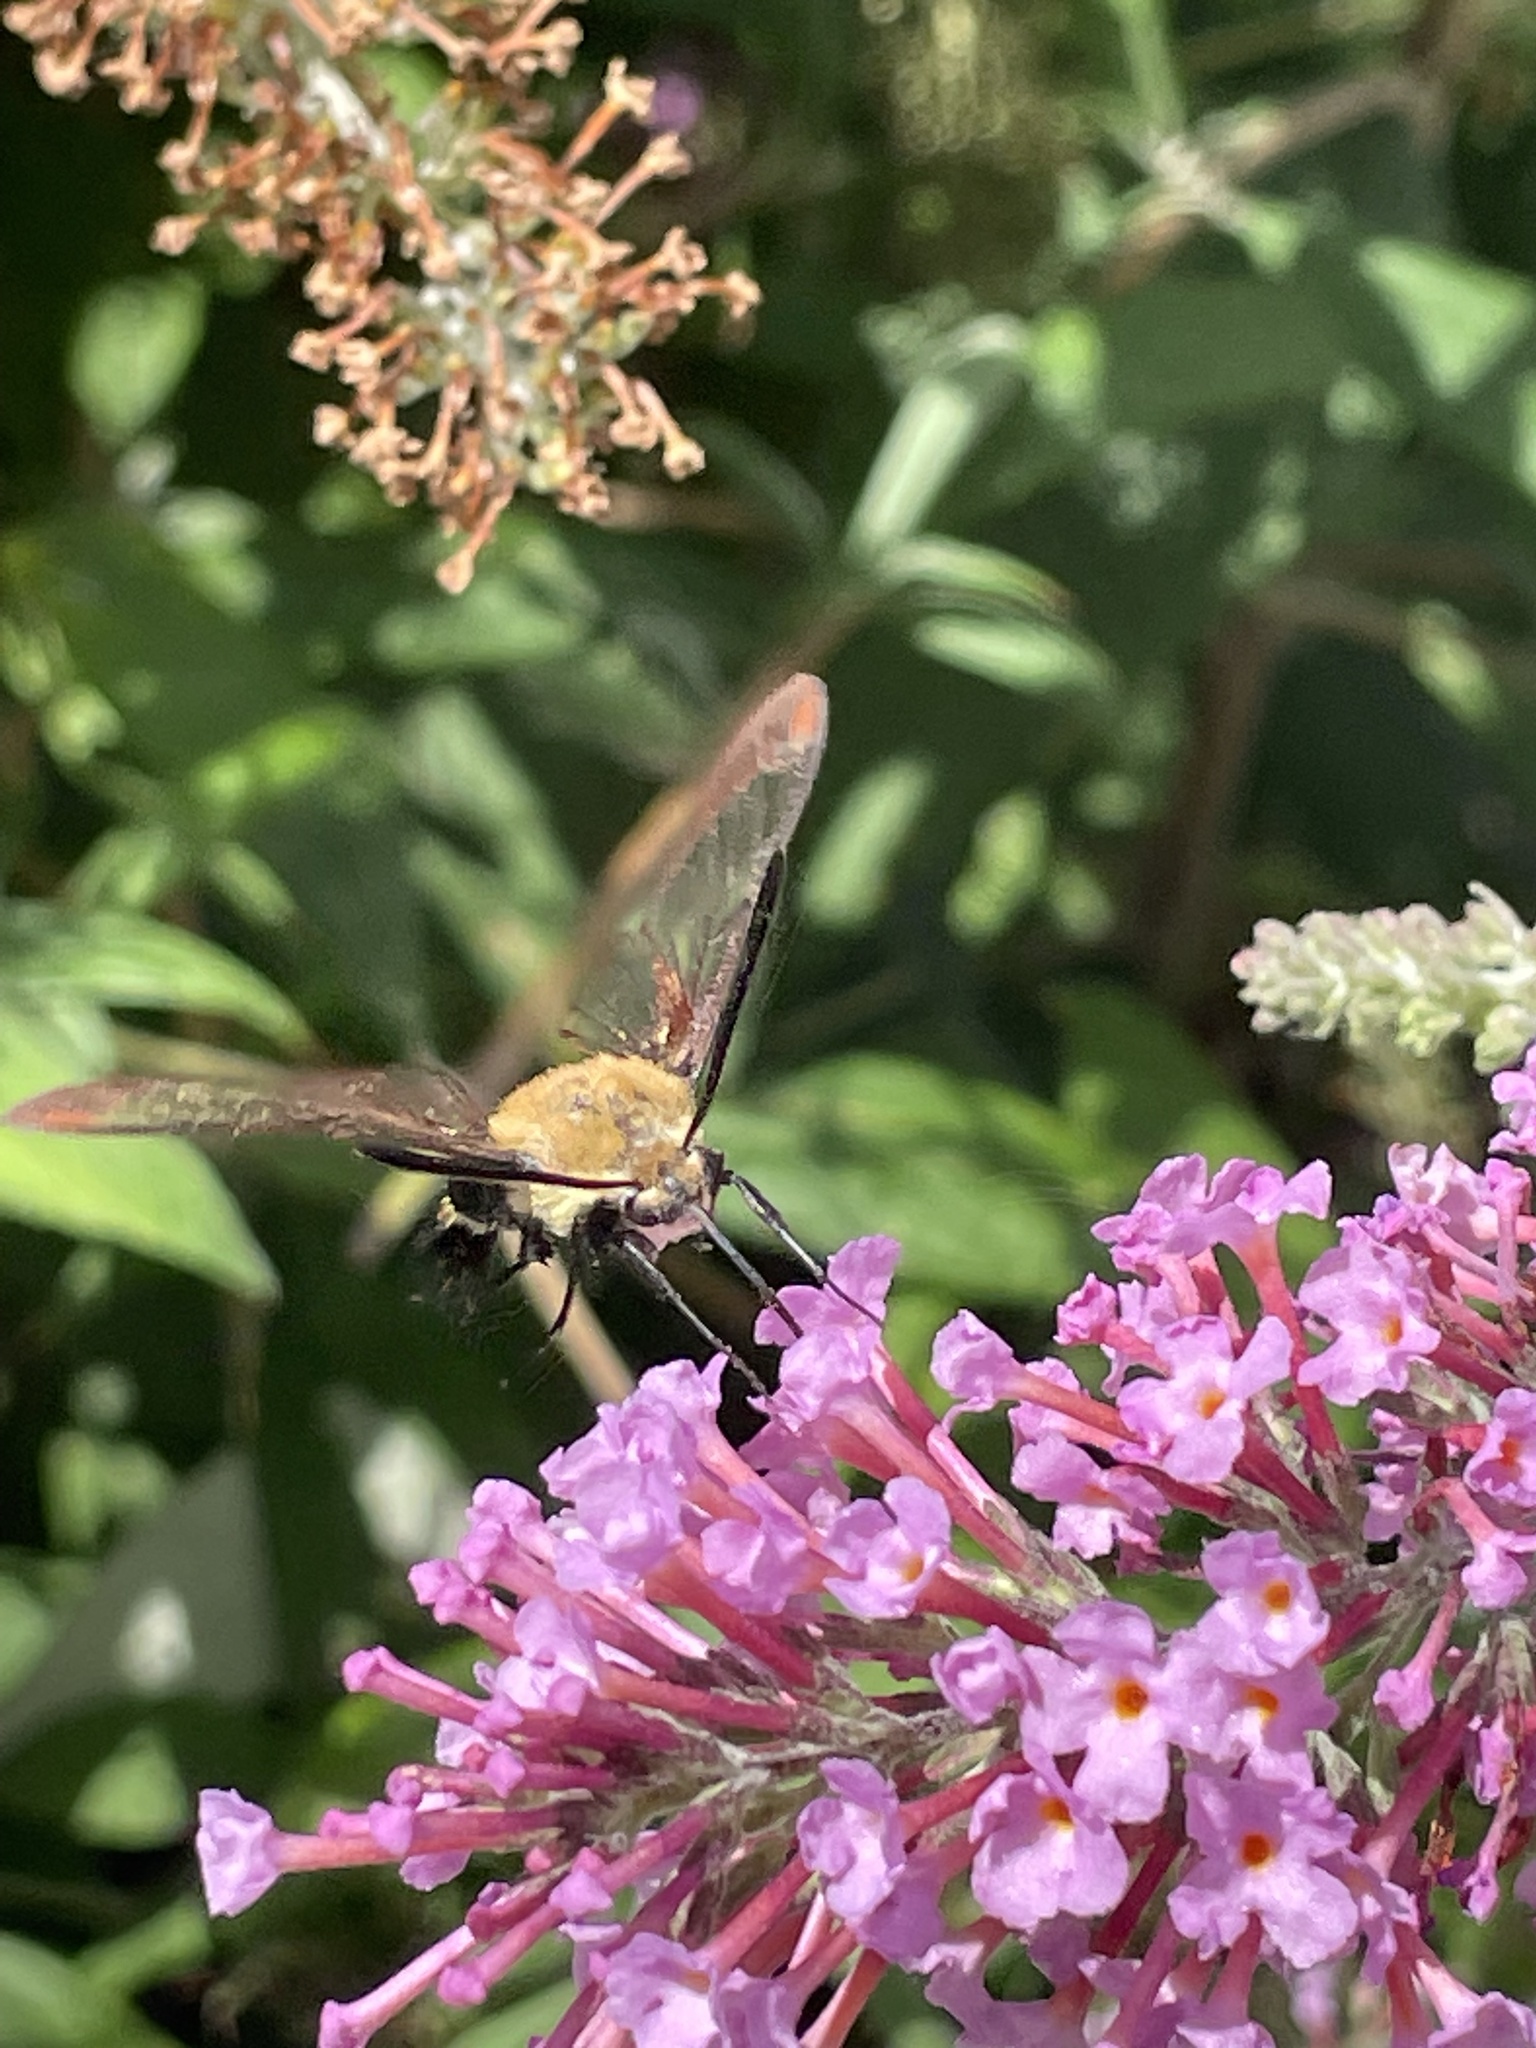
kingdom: Animalia
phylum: Arthropoda
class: Insecta
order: Lepidoptera
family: Sphingidae
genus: Hemaris
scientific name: Hemaris diffinis
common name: Bumblebee moth
